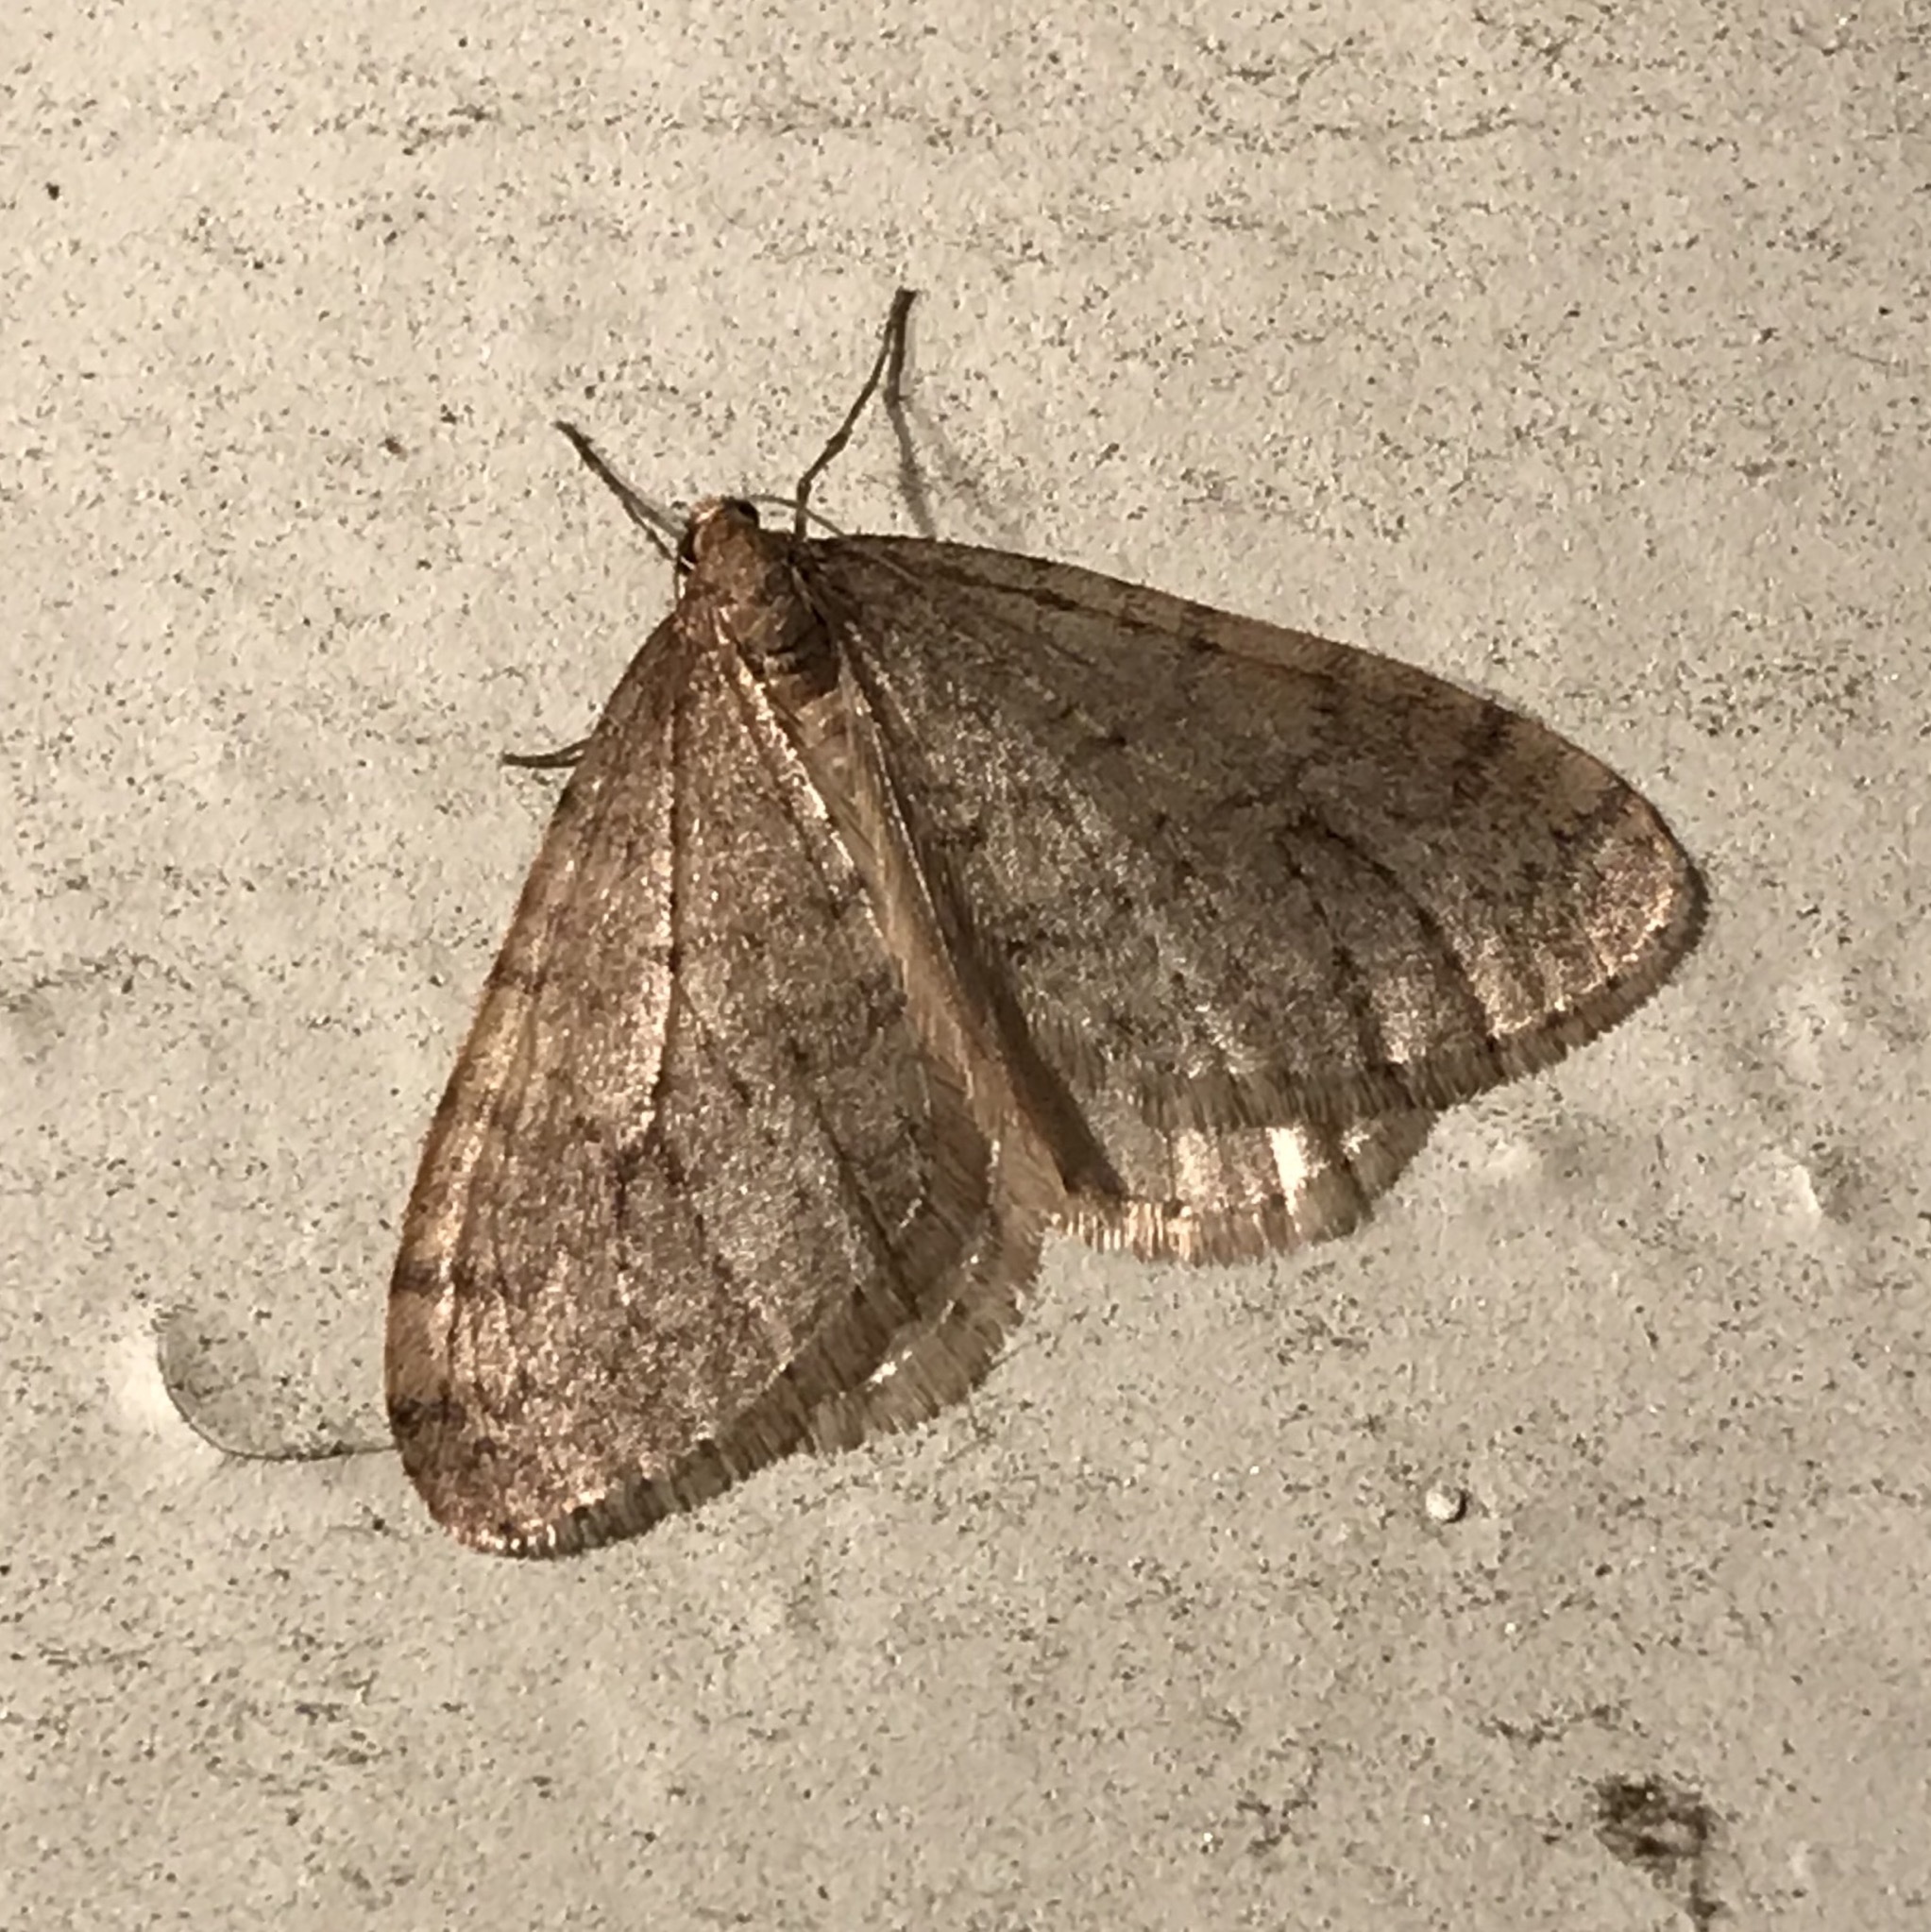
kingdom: Animalia
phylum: Arthropoda
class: Insecta
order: Lepidoptera
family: Geometridae
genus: Operophtera
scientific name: Operophtera bruceata
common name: Bruce spanworm
